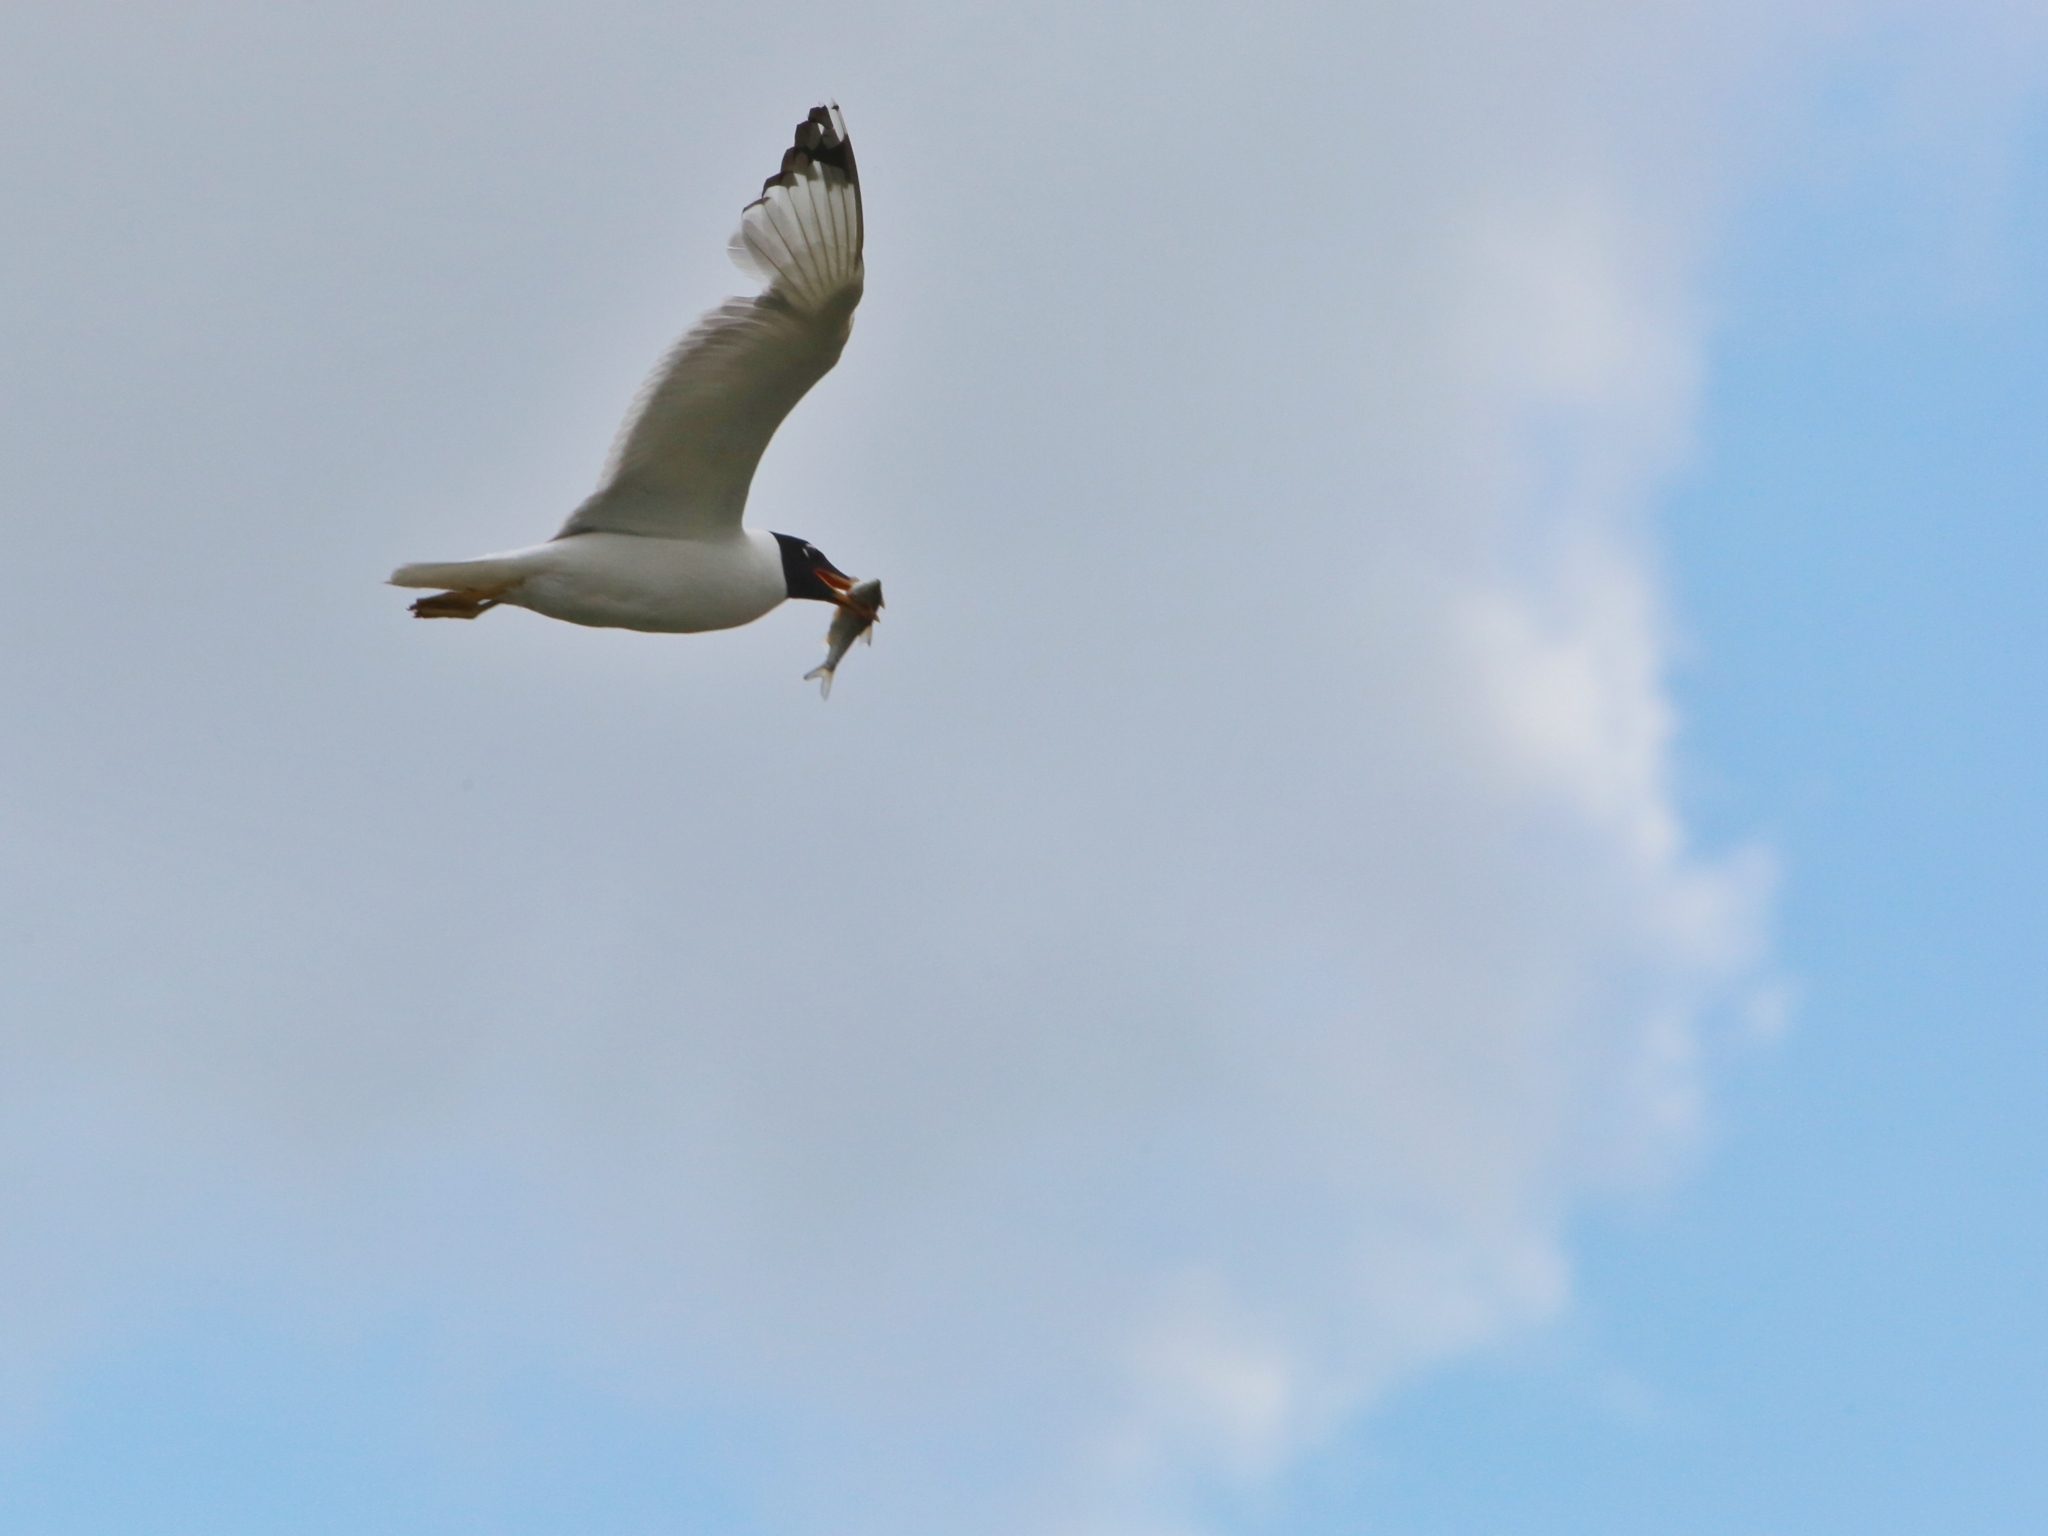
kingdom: Animalia
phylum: Chordata
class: Aves
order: Charadriiformes
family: Laridae
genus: Ichthyaetus
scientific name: Ichthyaetus ichthyaetus
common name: Pallas's gull
